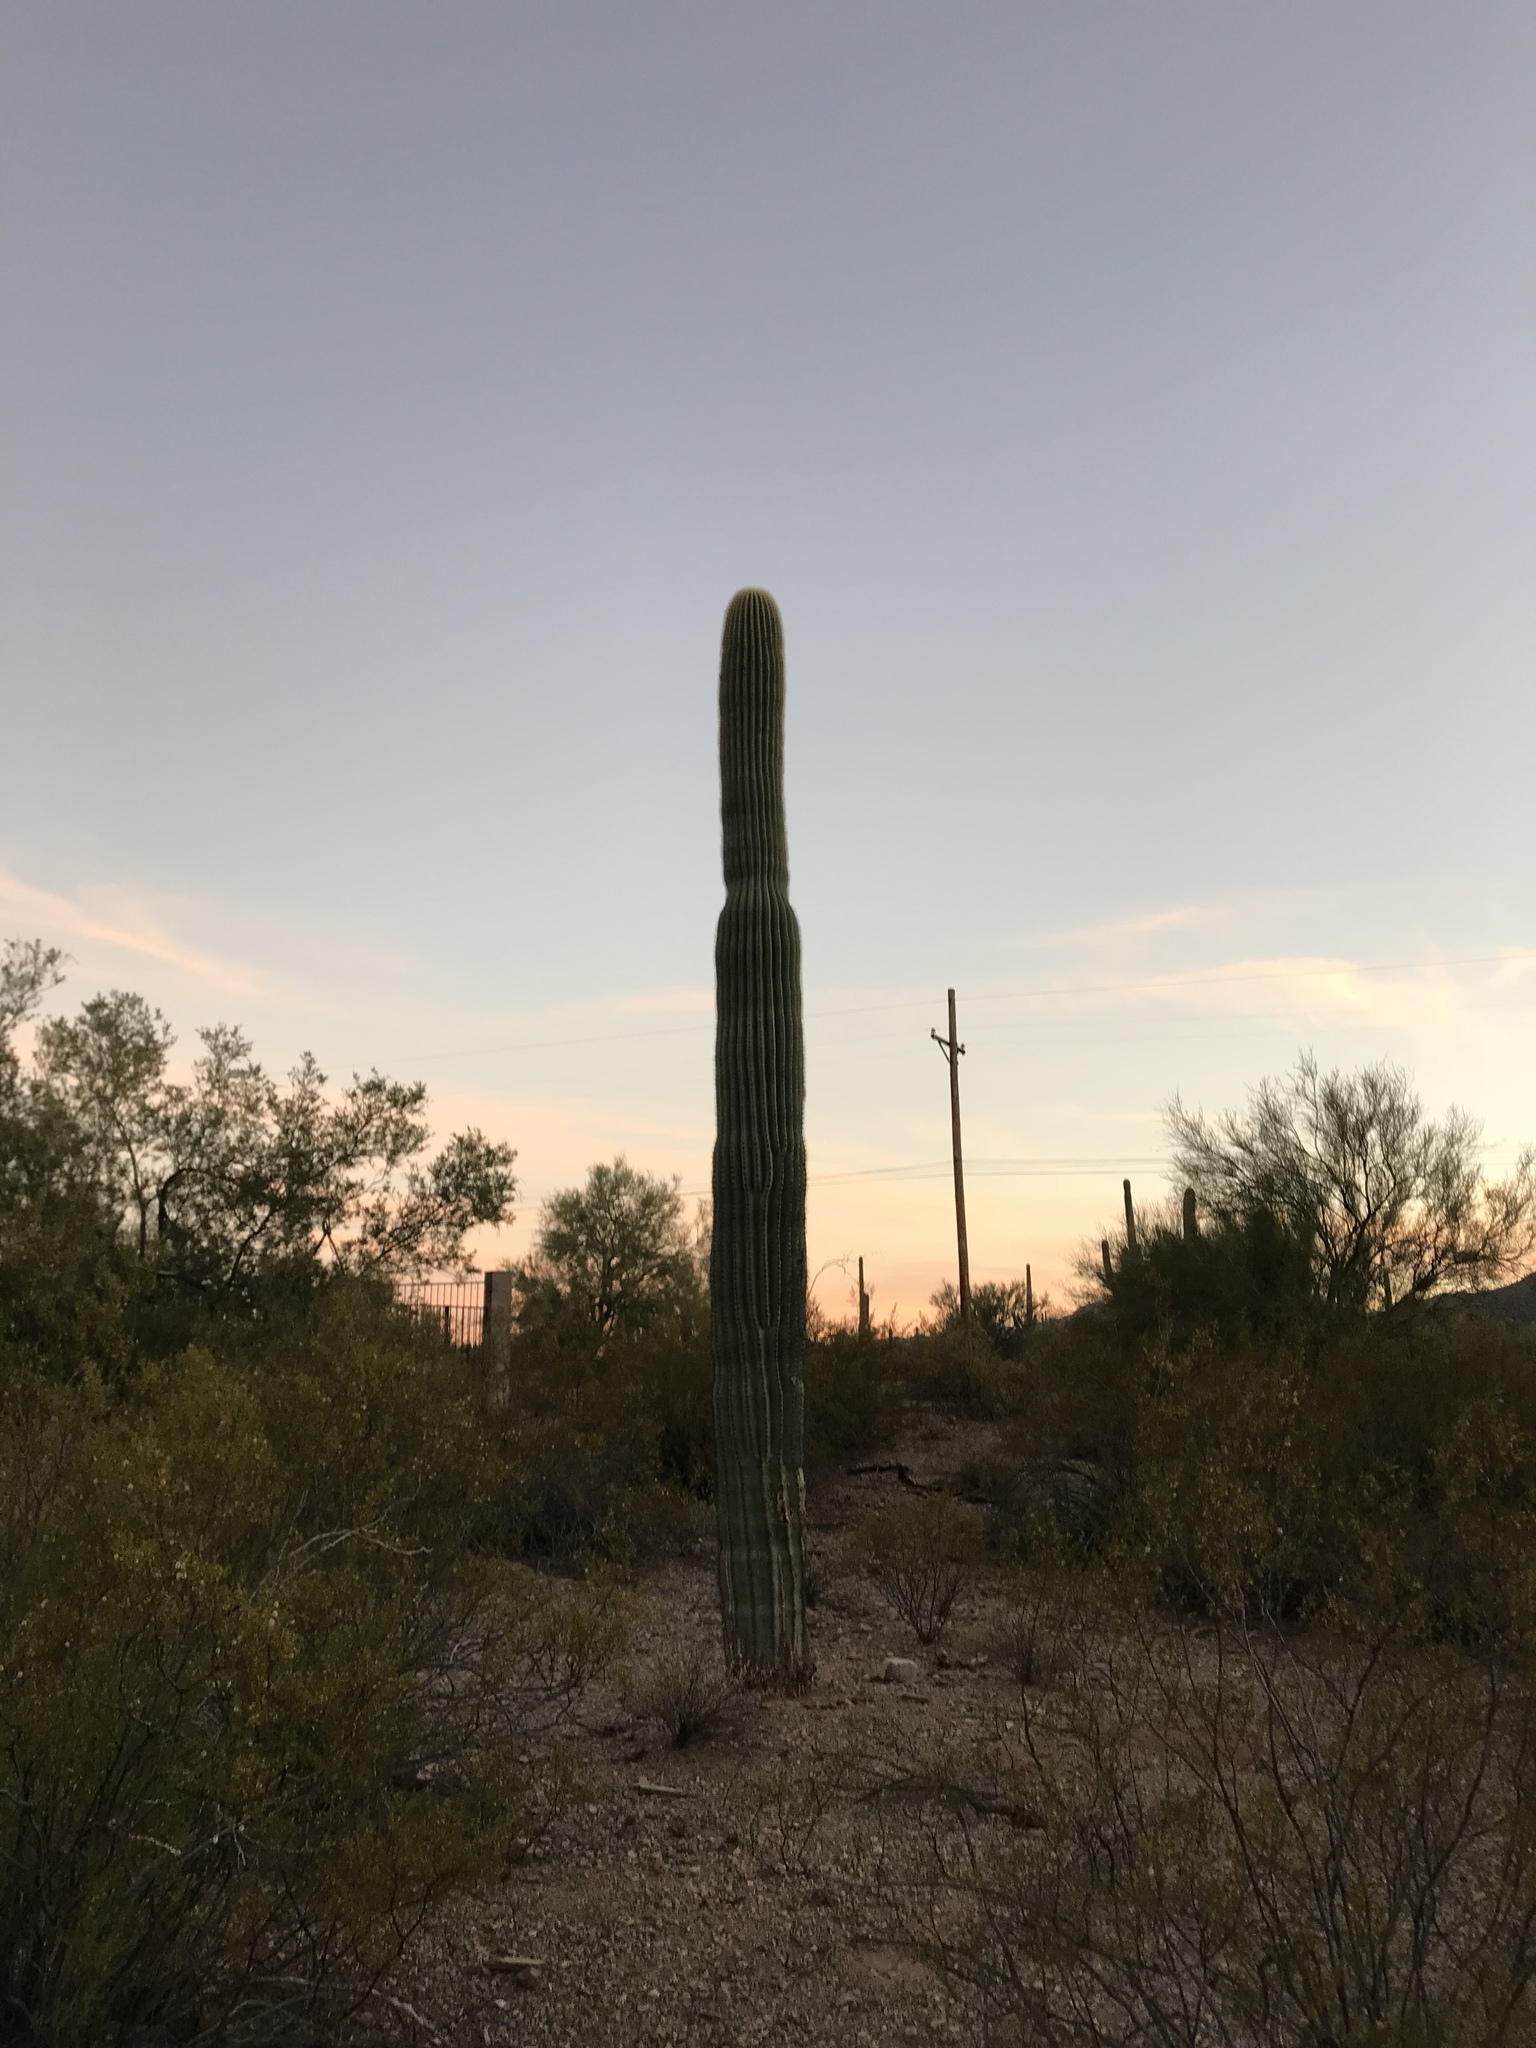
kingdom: Plantae
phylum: Tracheophyta
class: Magnoliopsida
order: Caryophyllales
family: Cactaceae
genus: Carnegiea
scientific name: Carnegiea gigantea
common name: Saguaro
